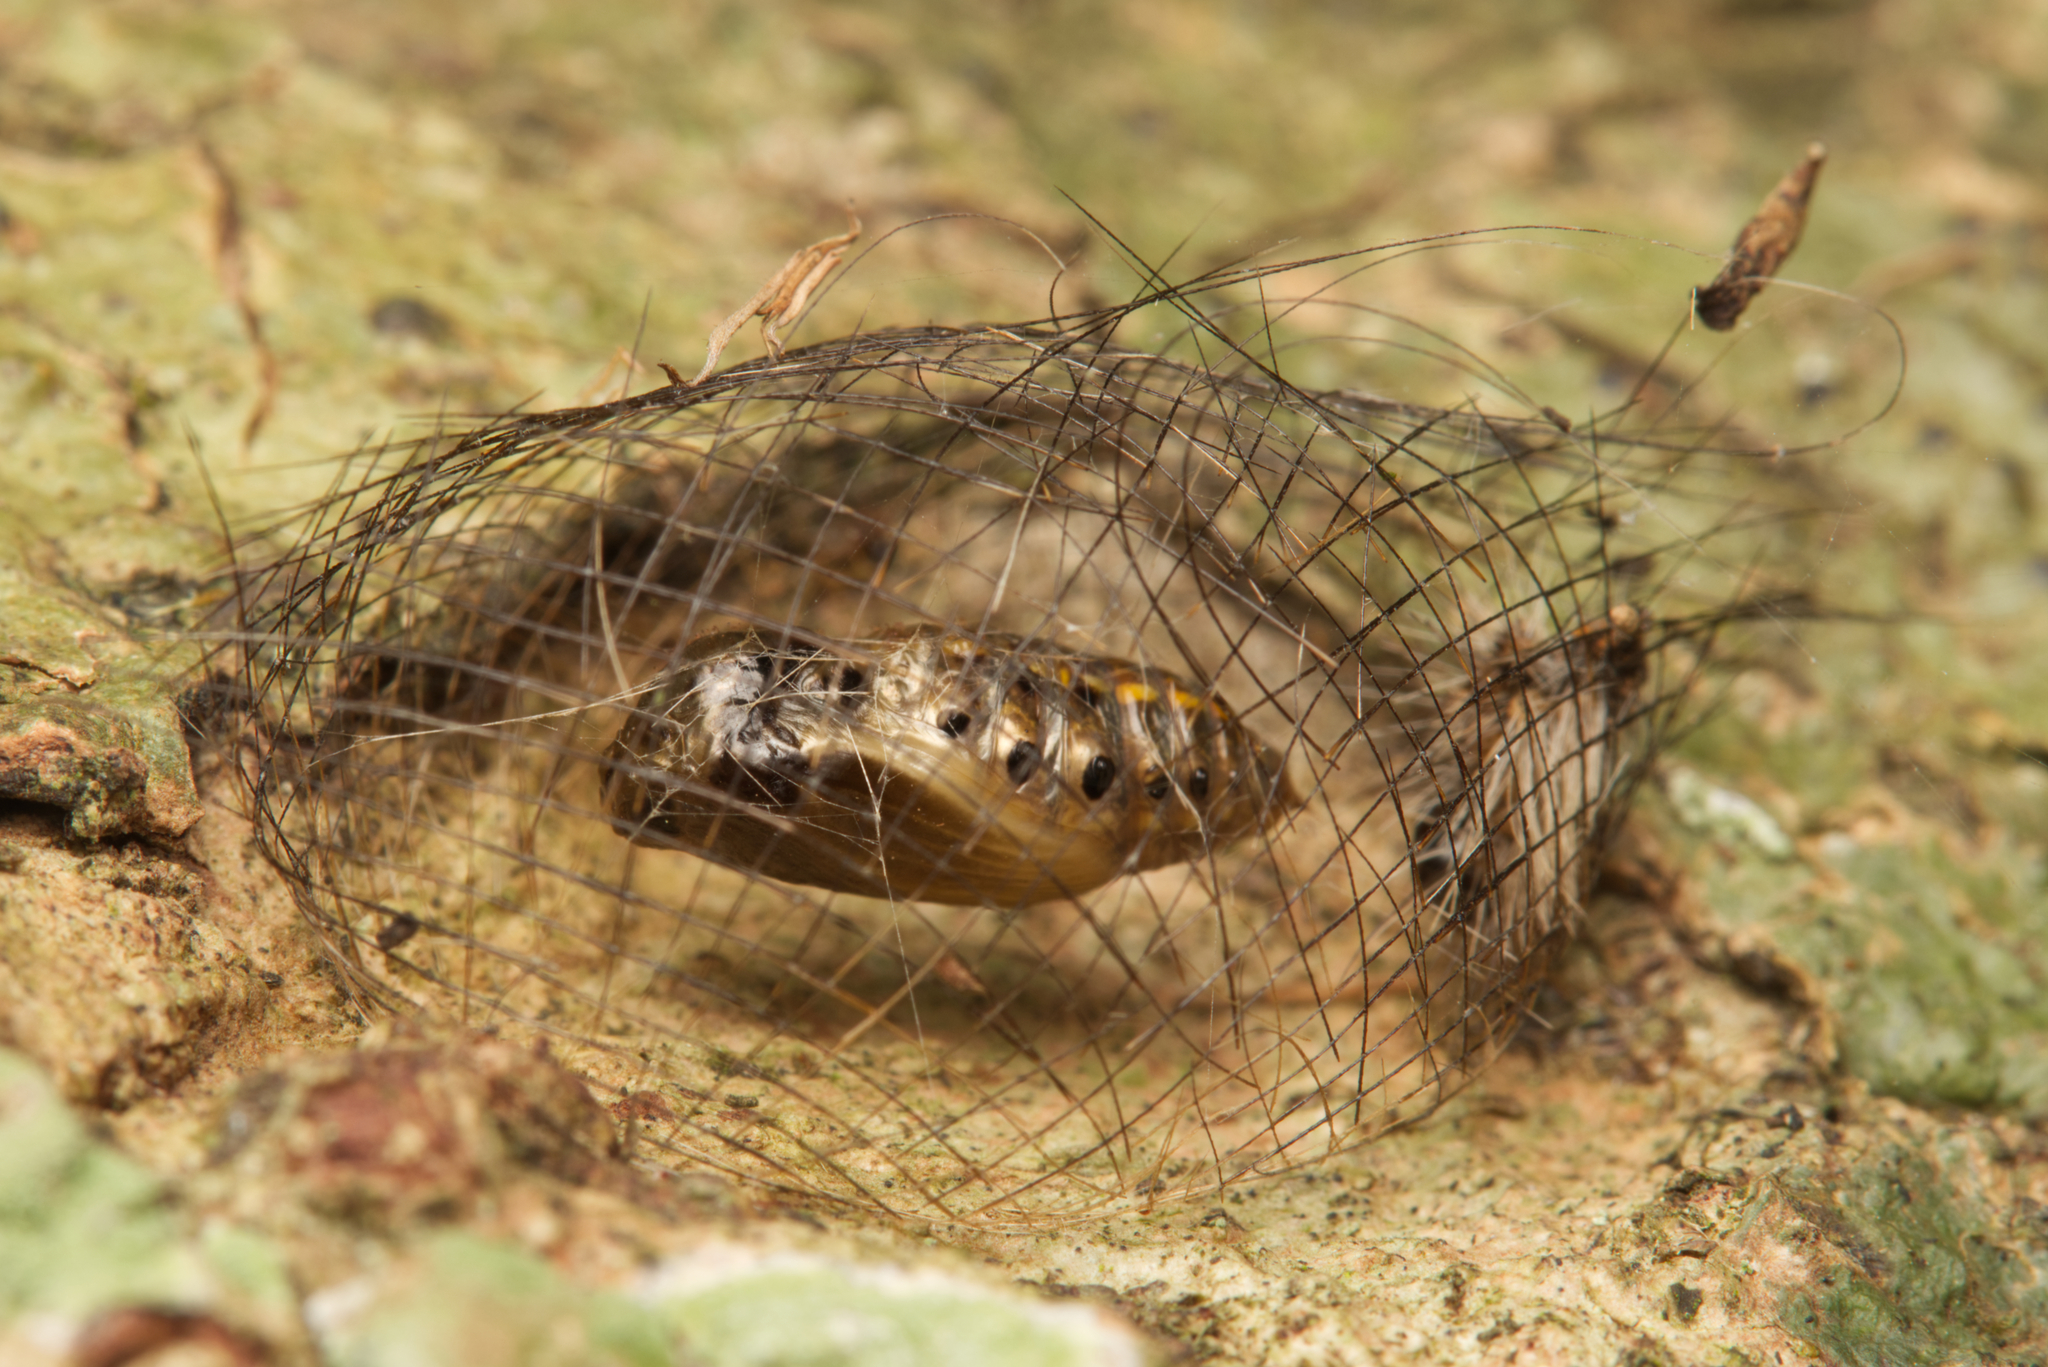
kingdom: Animalia
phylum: Arthropoda
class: Insecta
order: Lepidoptera
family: Erebidae
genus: Cyana
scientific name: Cyana meyricki
